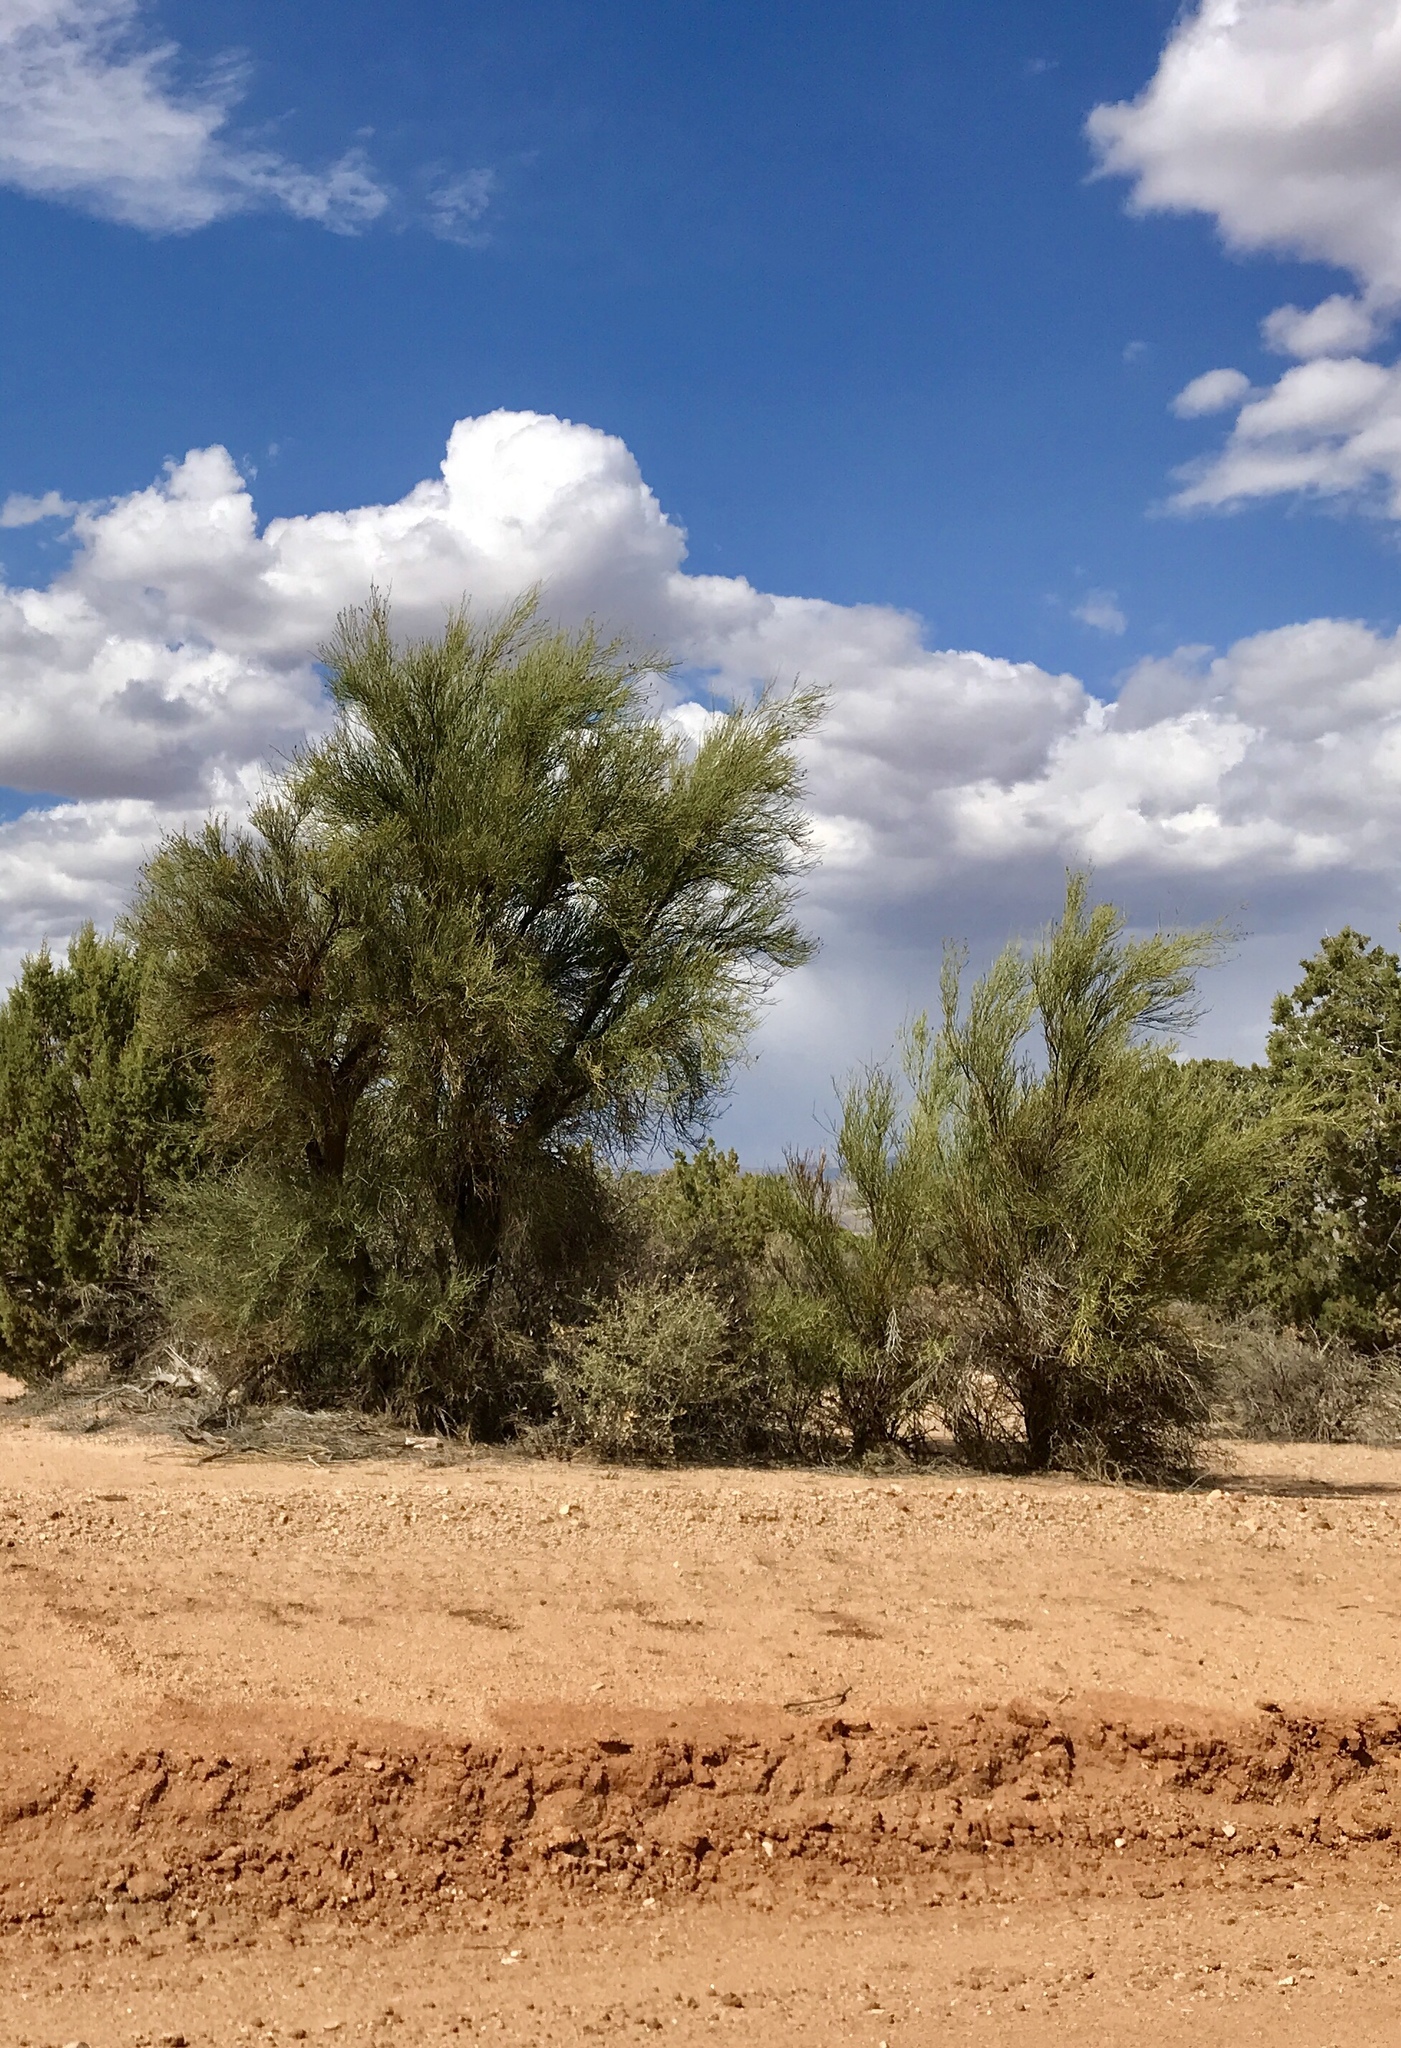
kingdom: Plantae
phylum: Tracheophyta
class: Magnoliopsida
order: Celastrales
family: Celastraceae
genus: Canotia
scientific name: Canotia holacantha
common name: Crucifixion thorns
